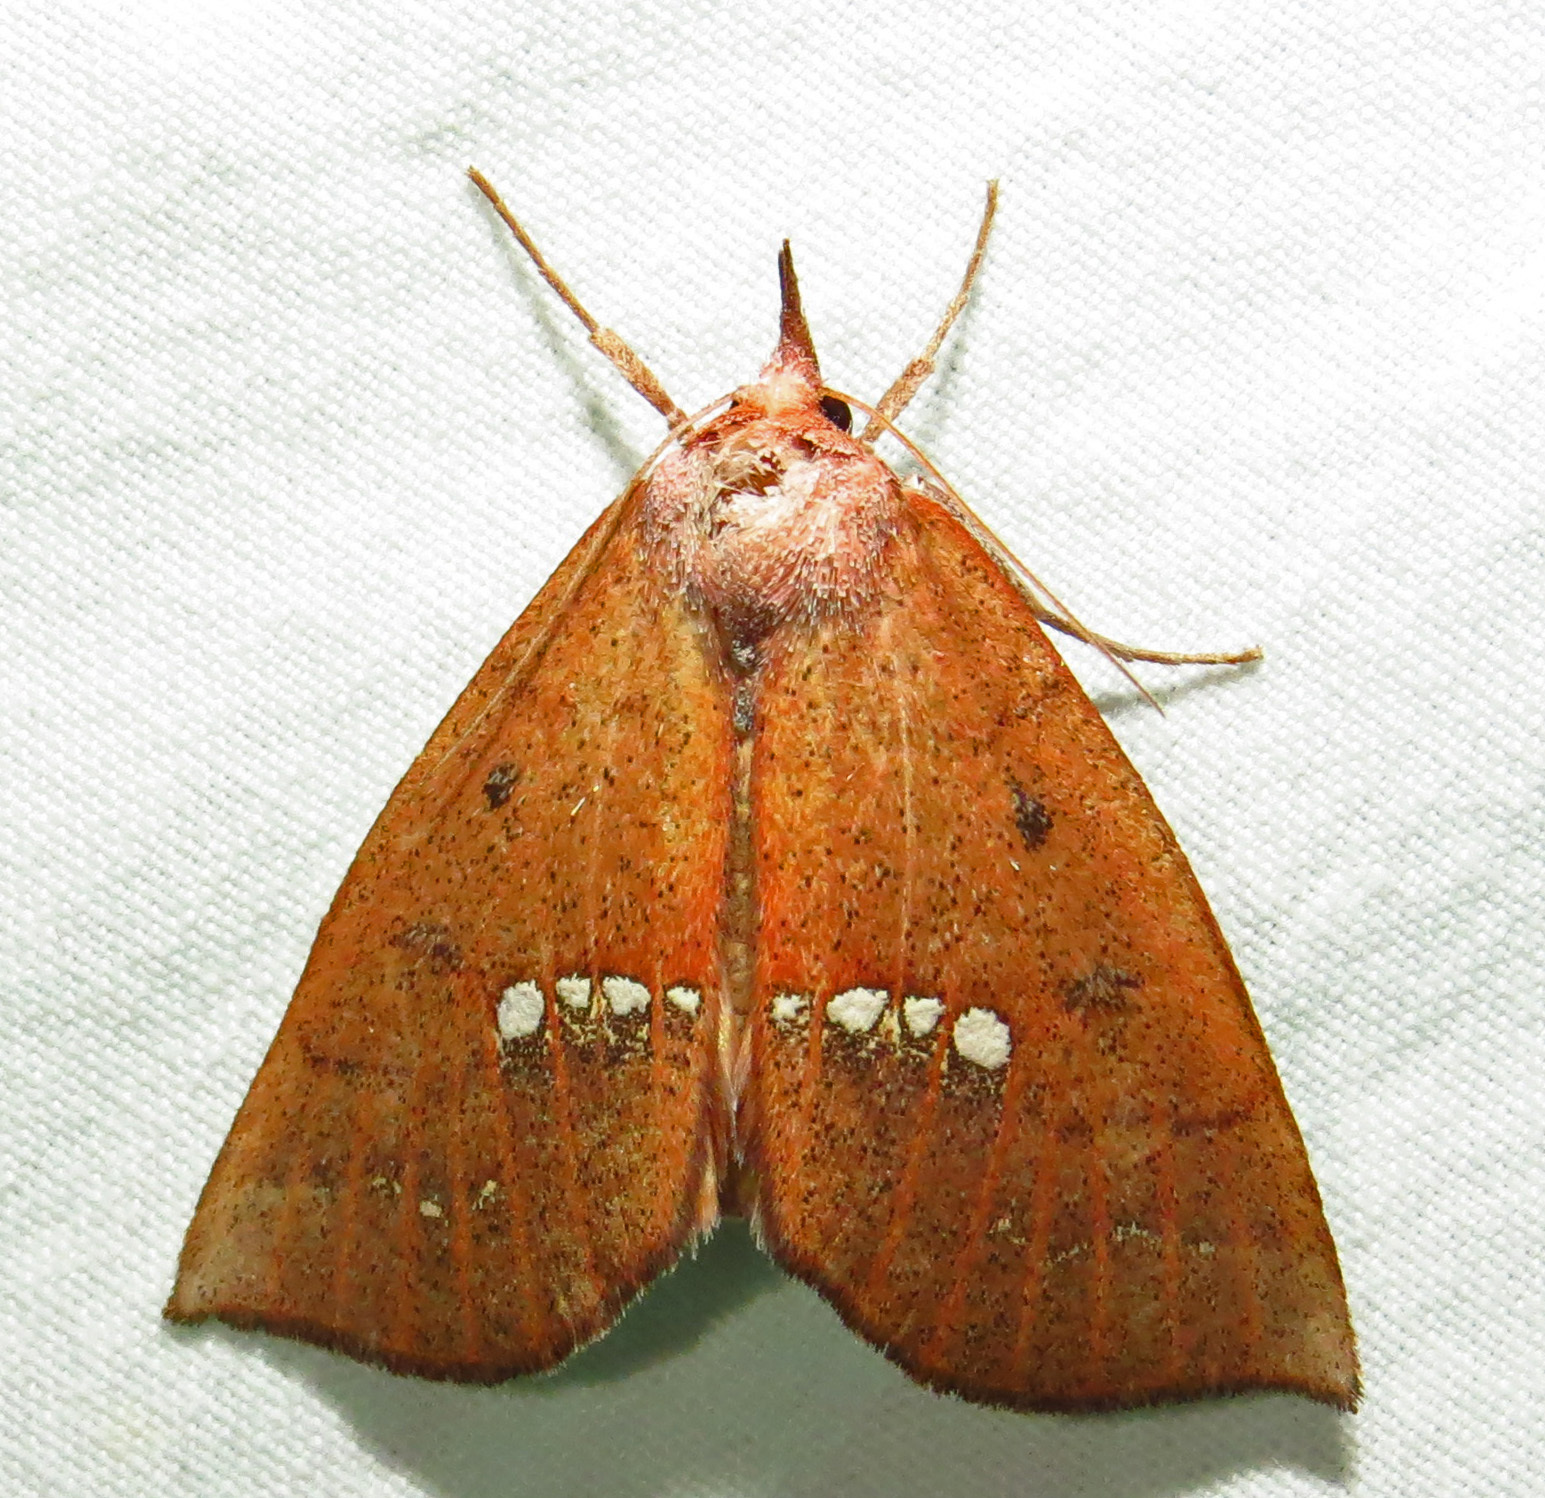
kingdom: Animalia
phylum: Arthropoda
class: Insecta
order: Lepidoptera
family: Erebidae
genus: Hypsoropha
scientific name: Hypsoropha monilis
